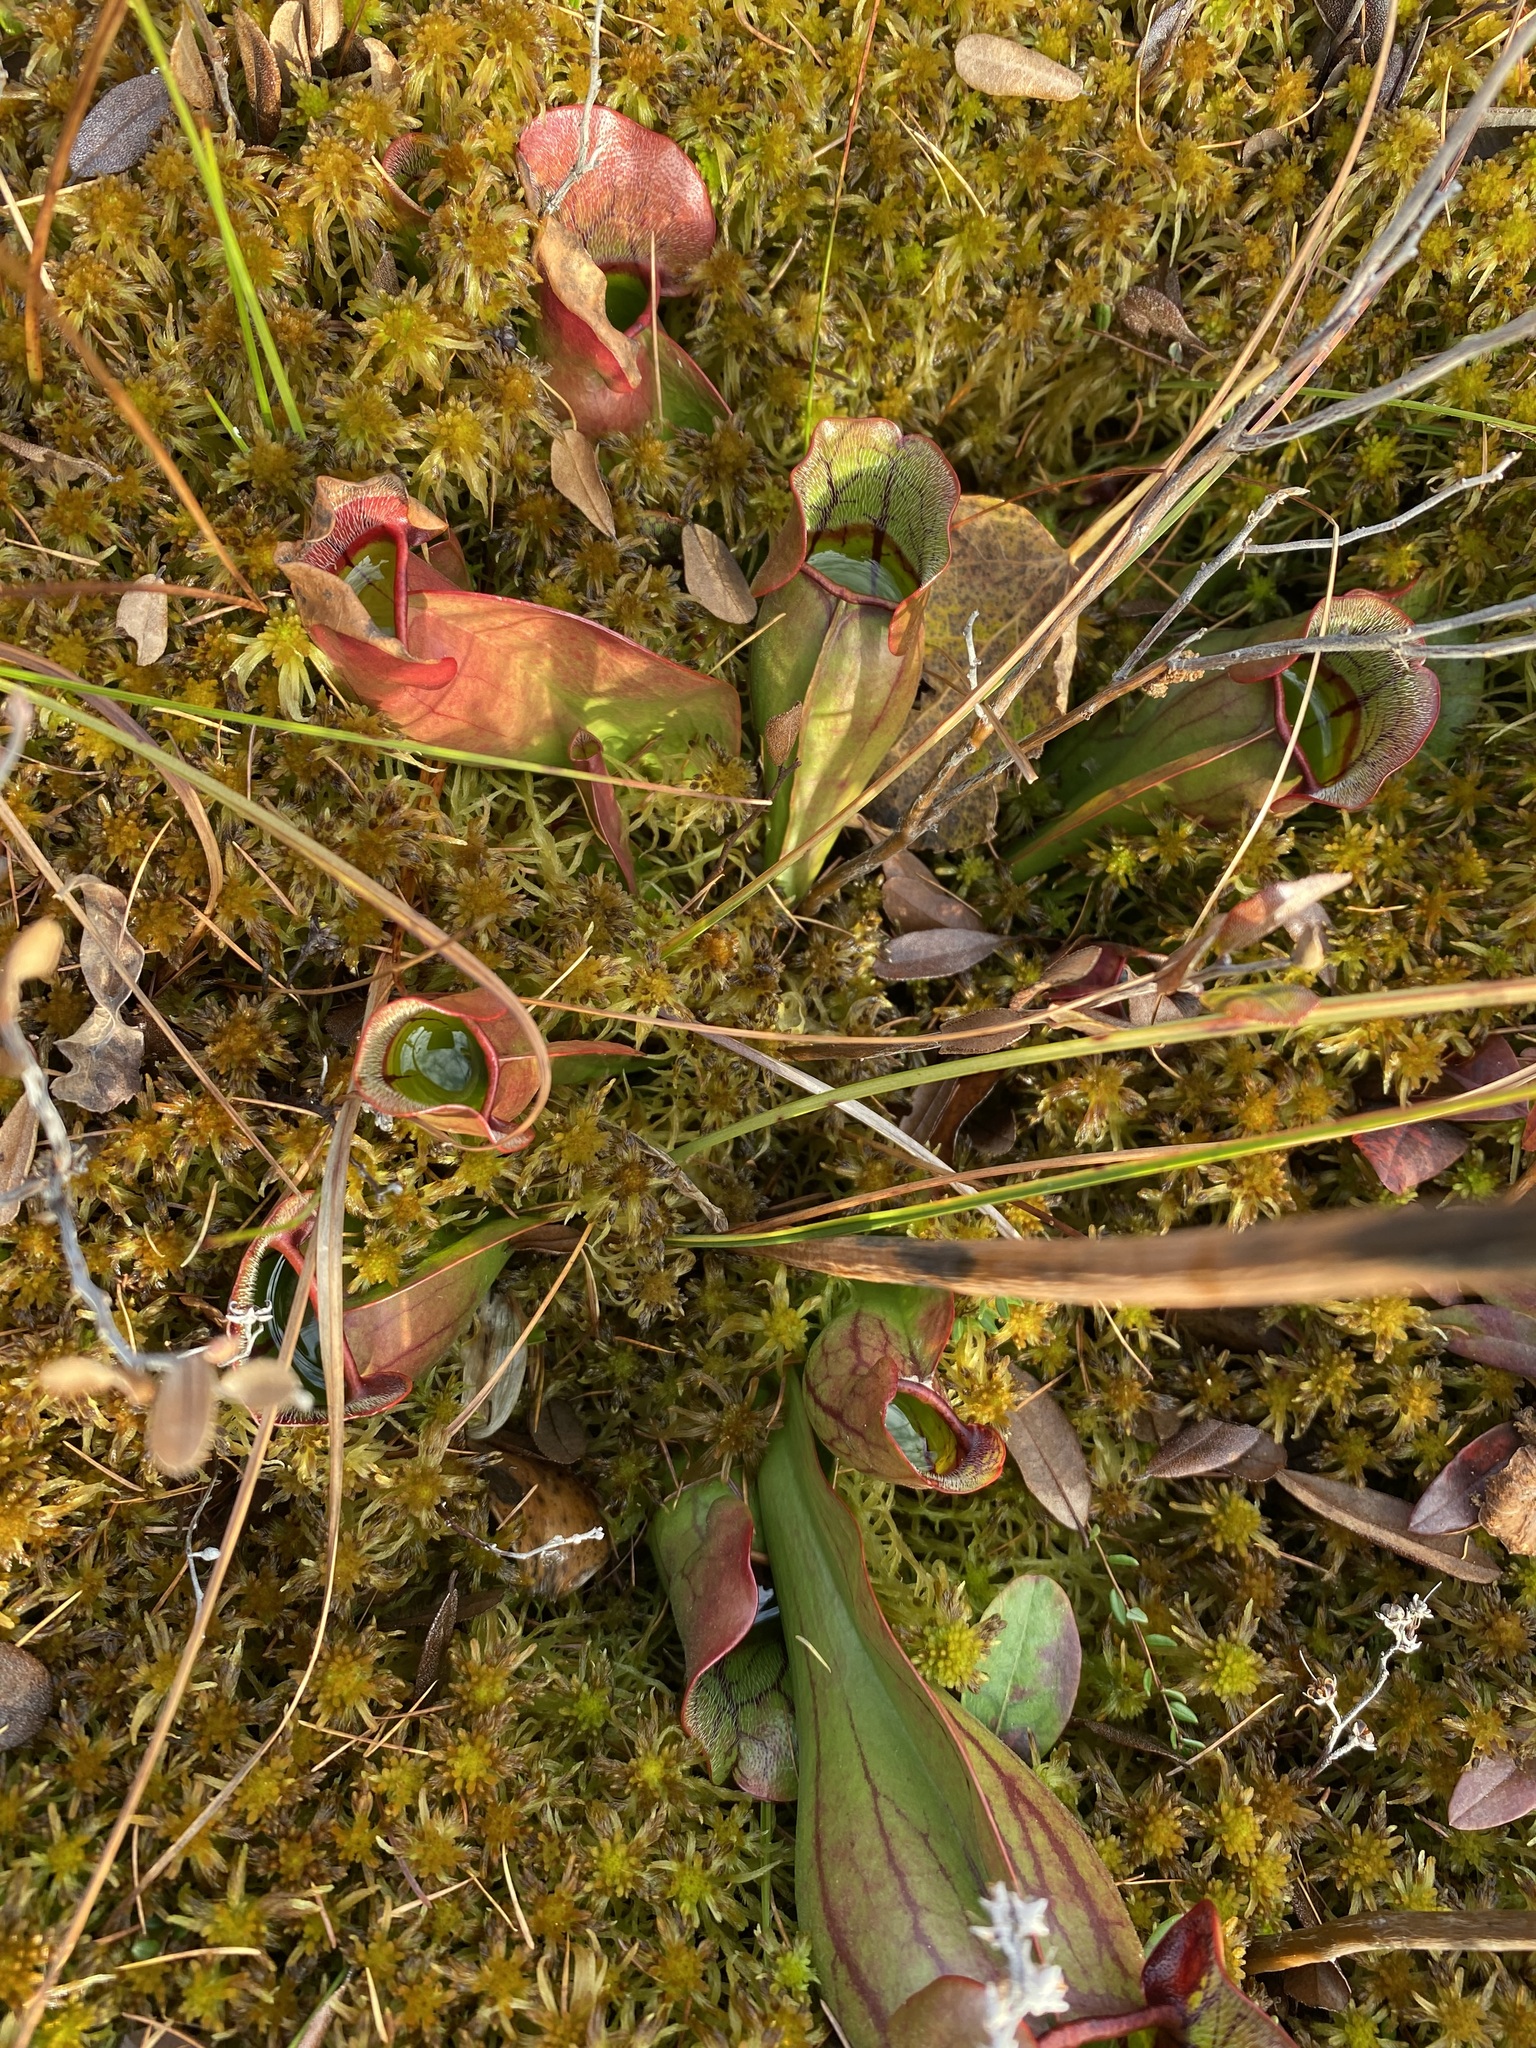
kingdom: Plantae
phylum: Tracheophyta
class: Magnoliopsida
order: Ericales
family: Sarraceniaceae
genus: Sarracenia
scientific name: Sarracenia purpurea
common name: Pitcherplant
